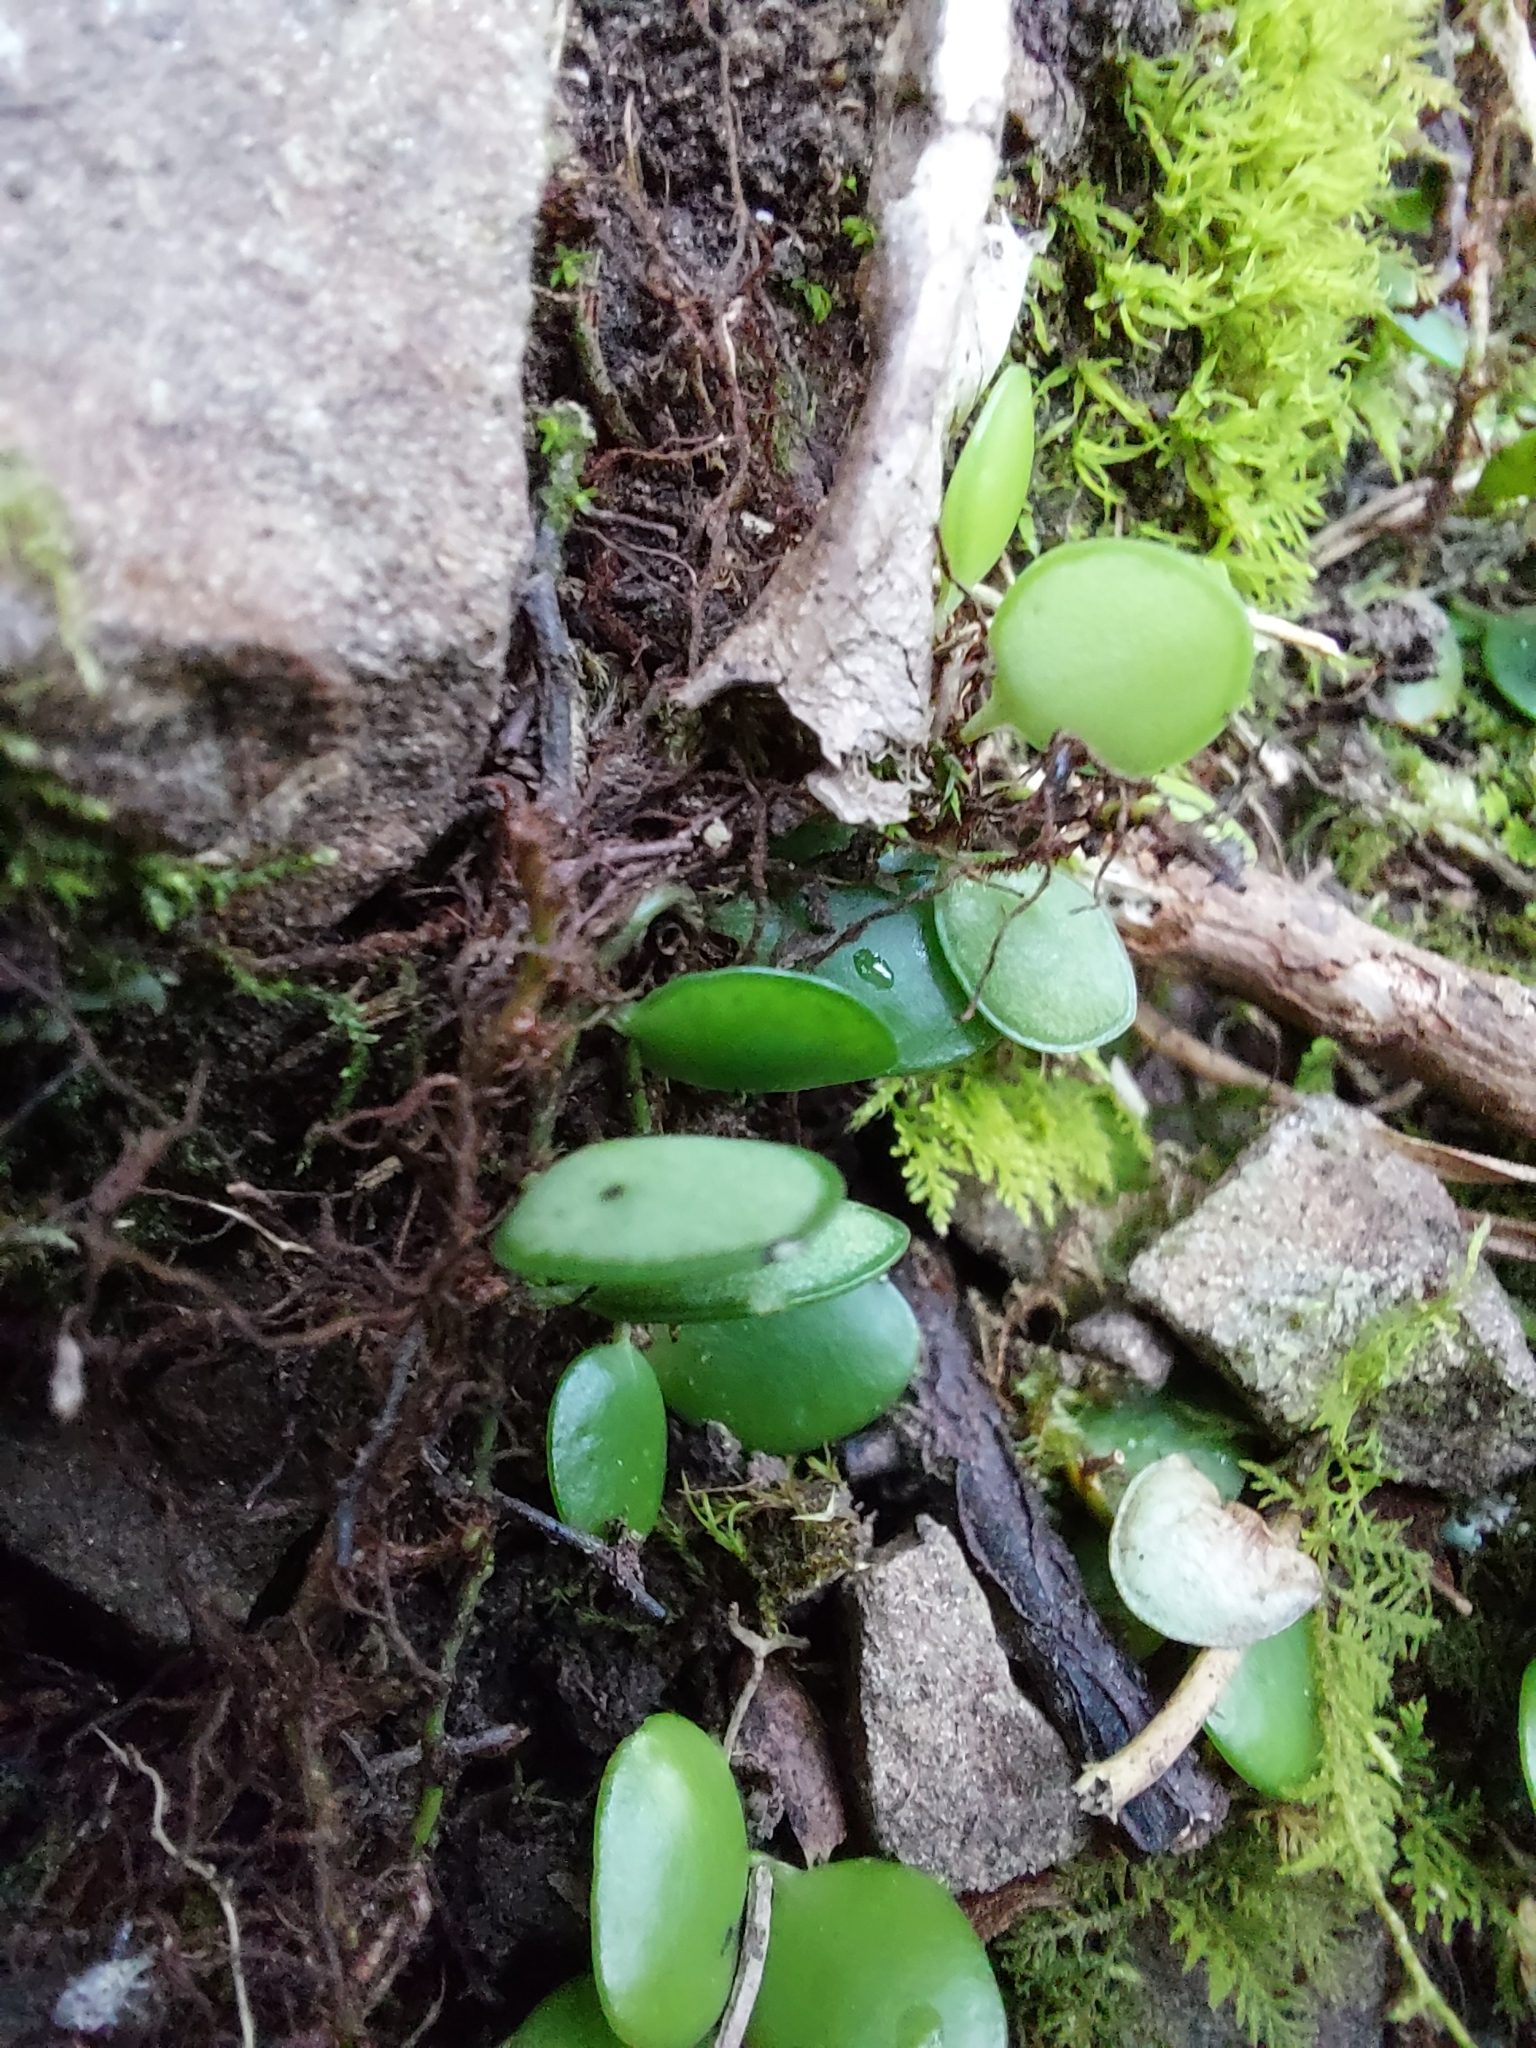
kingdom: Plantae
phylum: Tracheophyta
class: Polypodiopsida
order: Polypodiales
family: Polypodiaceae
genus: Lepisorus
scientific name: Lepisorus microphyllus
